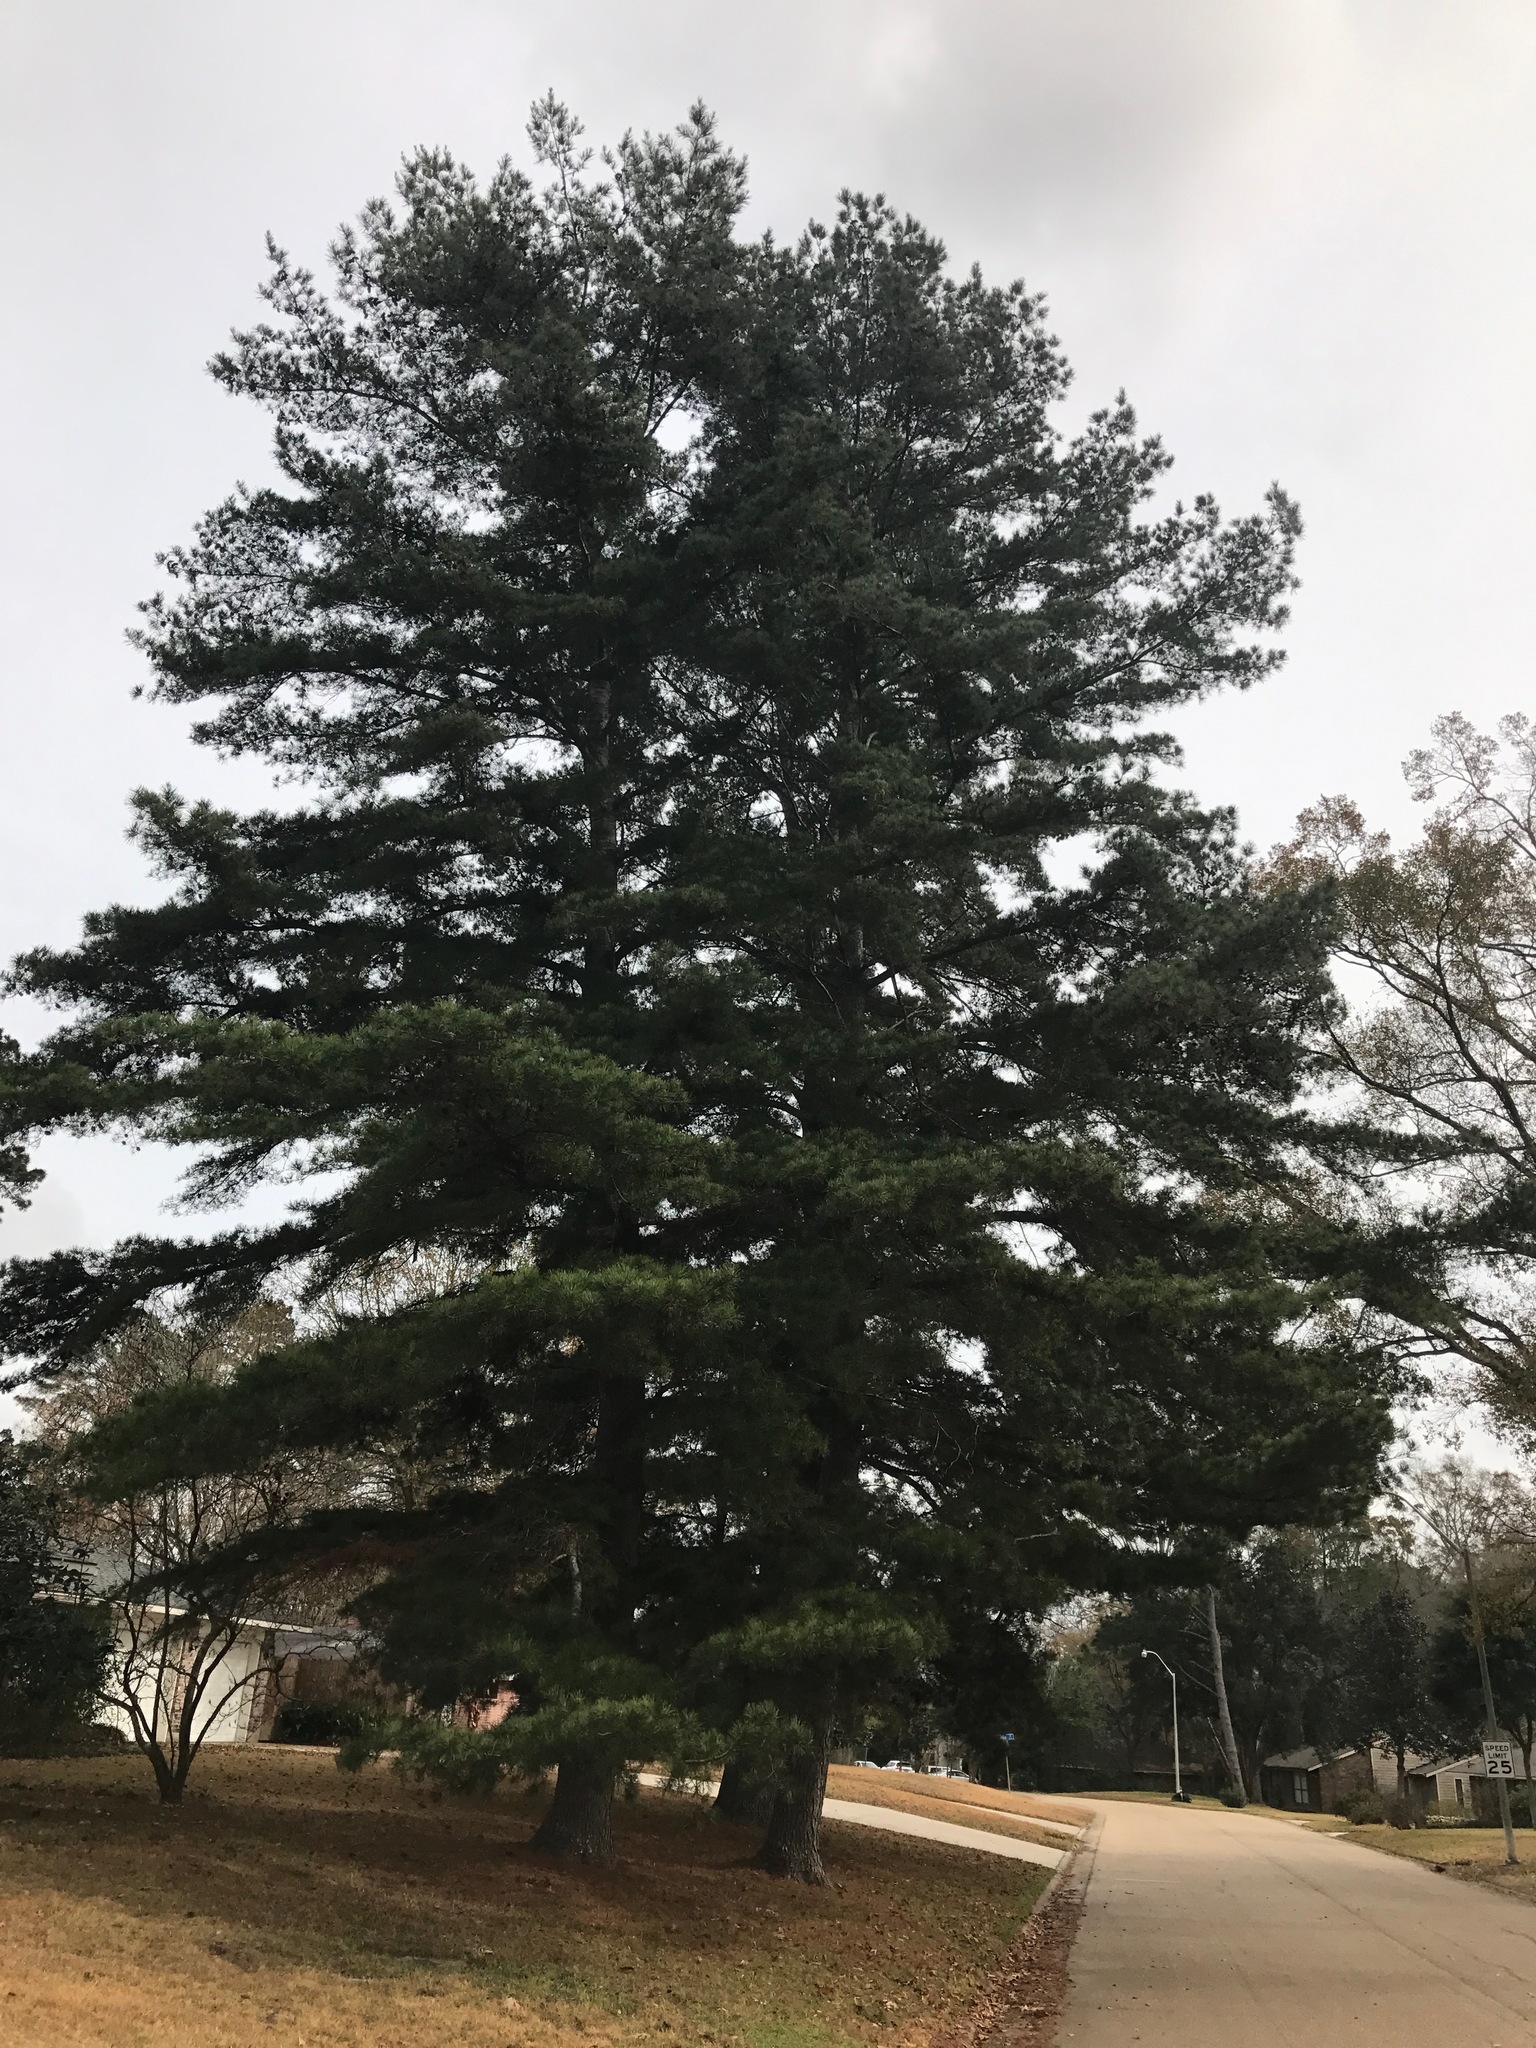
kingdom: Plantae
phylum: Tracheophyta
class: Pinopsida
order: Pinales
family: Pinaceae
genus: Pinus
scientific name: Pinus glabra
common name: Spruce pine
